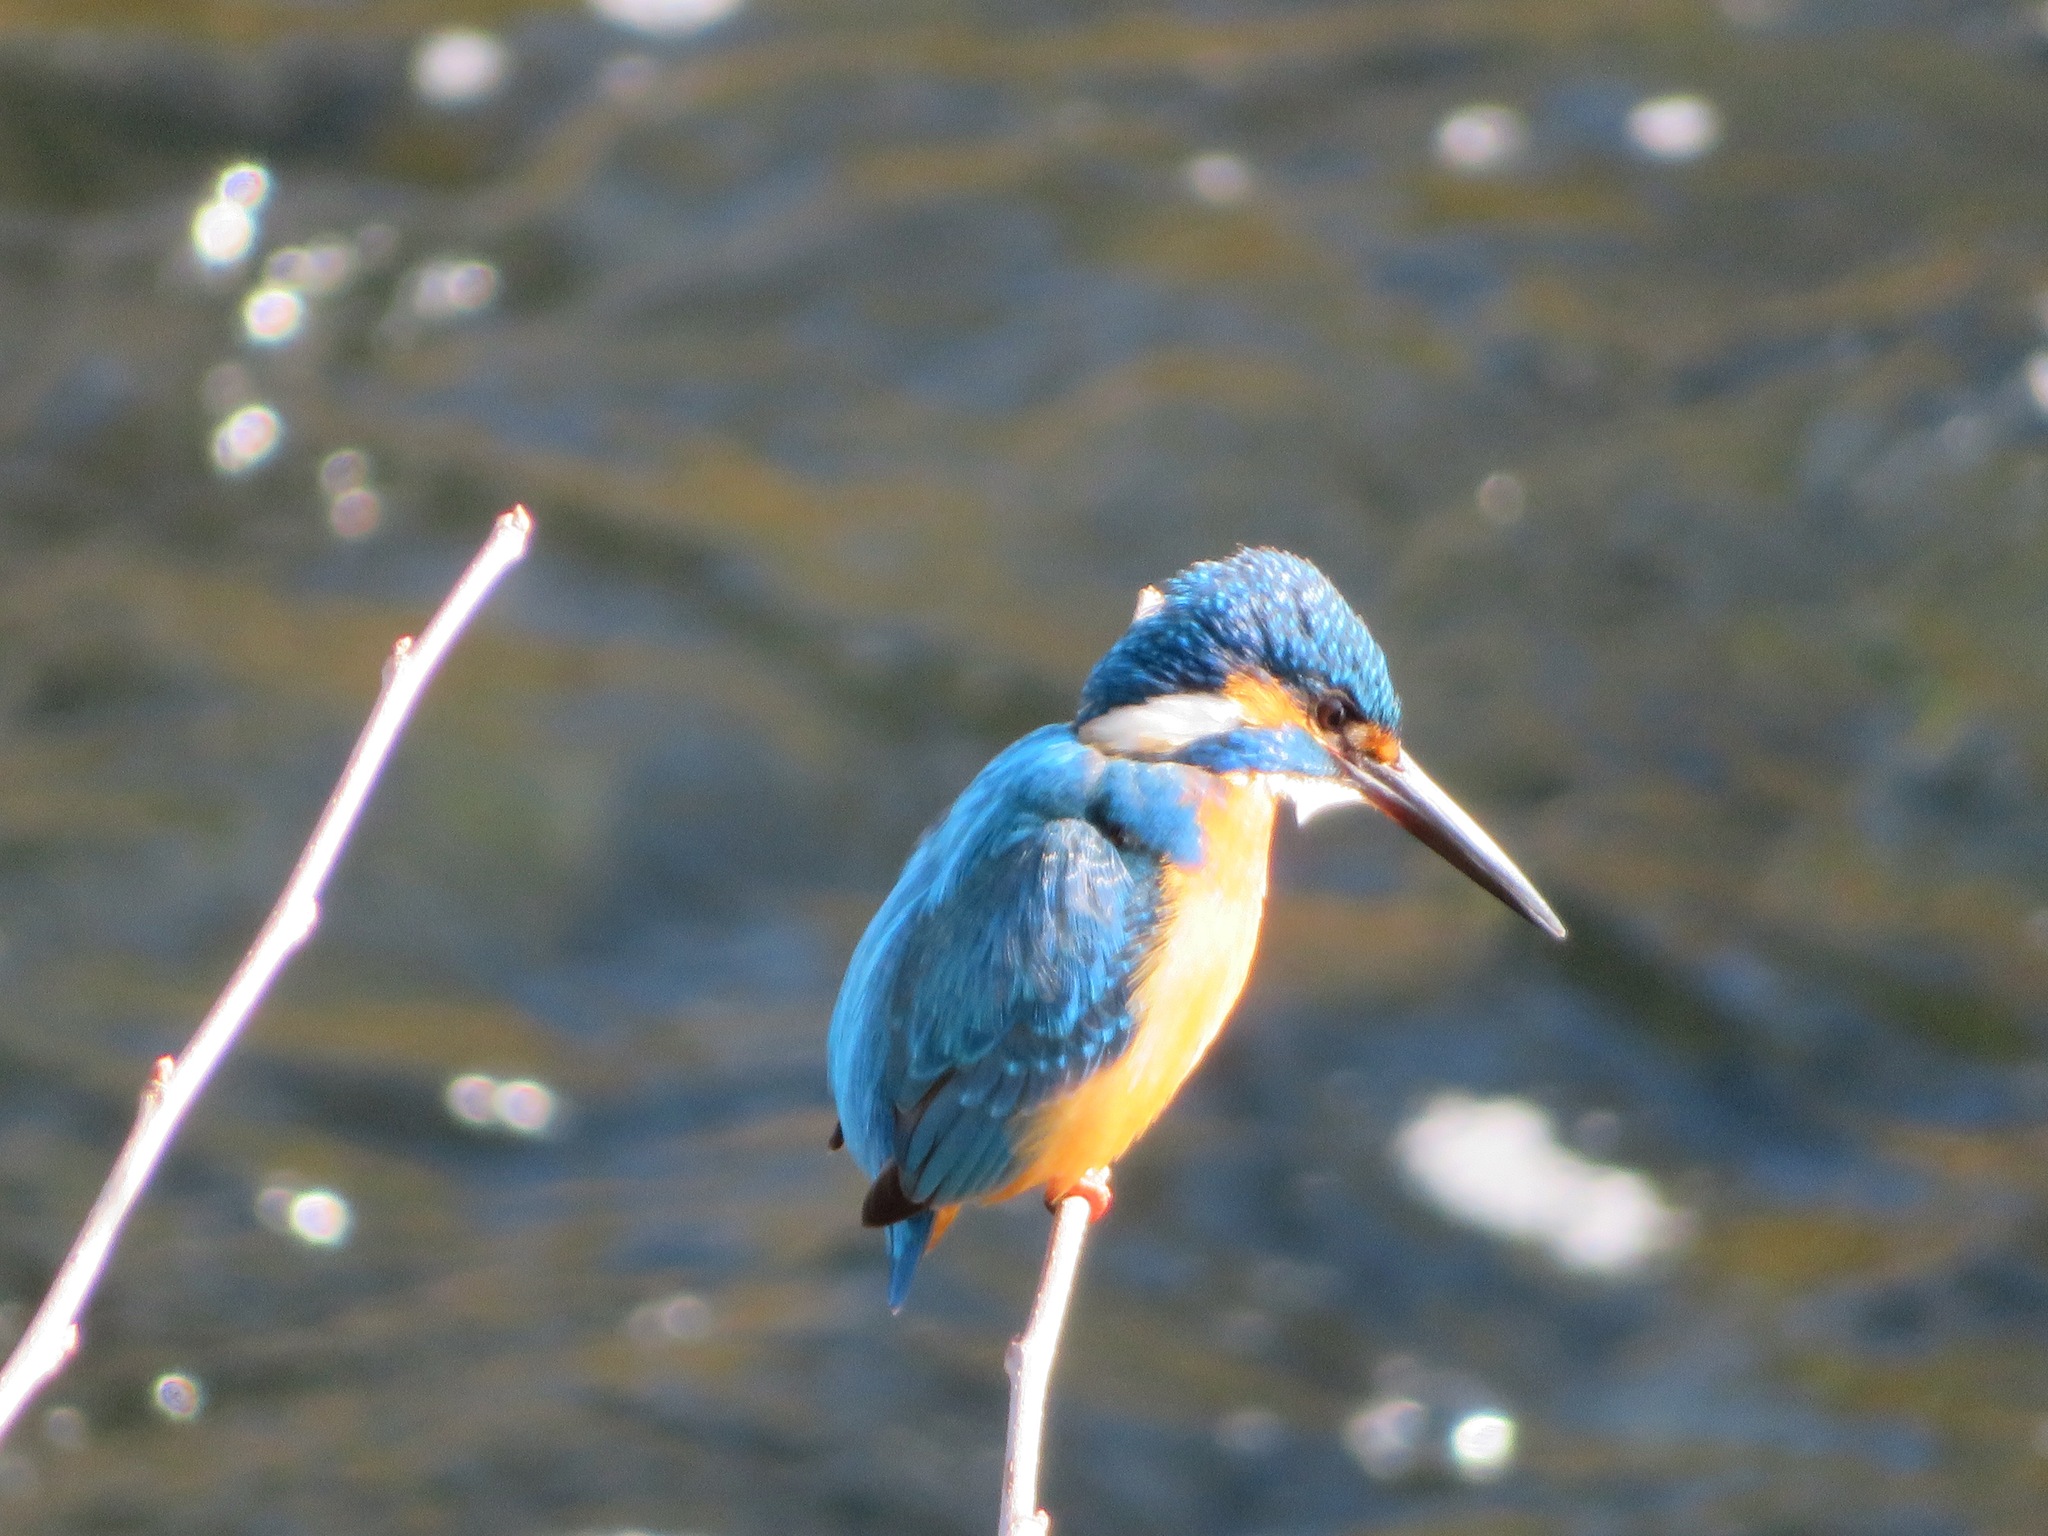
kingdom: Animalia
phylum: Chordata
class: Aves
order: Coraciiformes
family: Alcedinidae
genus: Alcedo
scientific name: Alcedo atthis
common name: Common kingfisher
